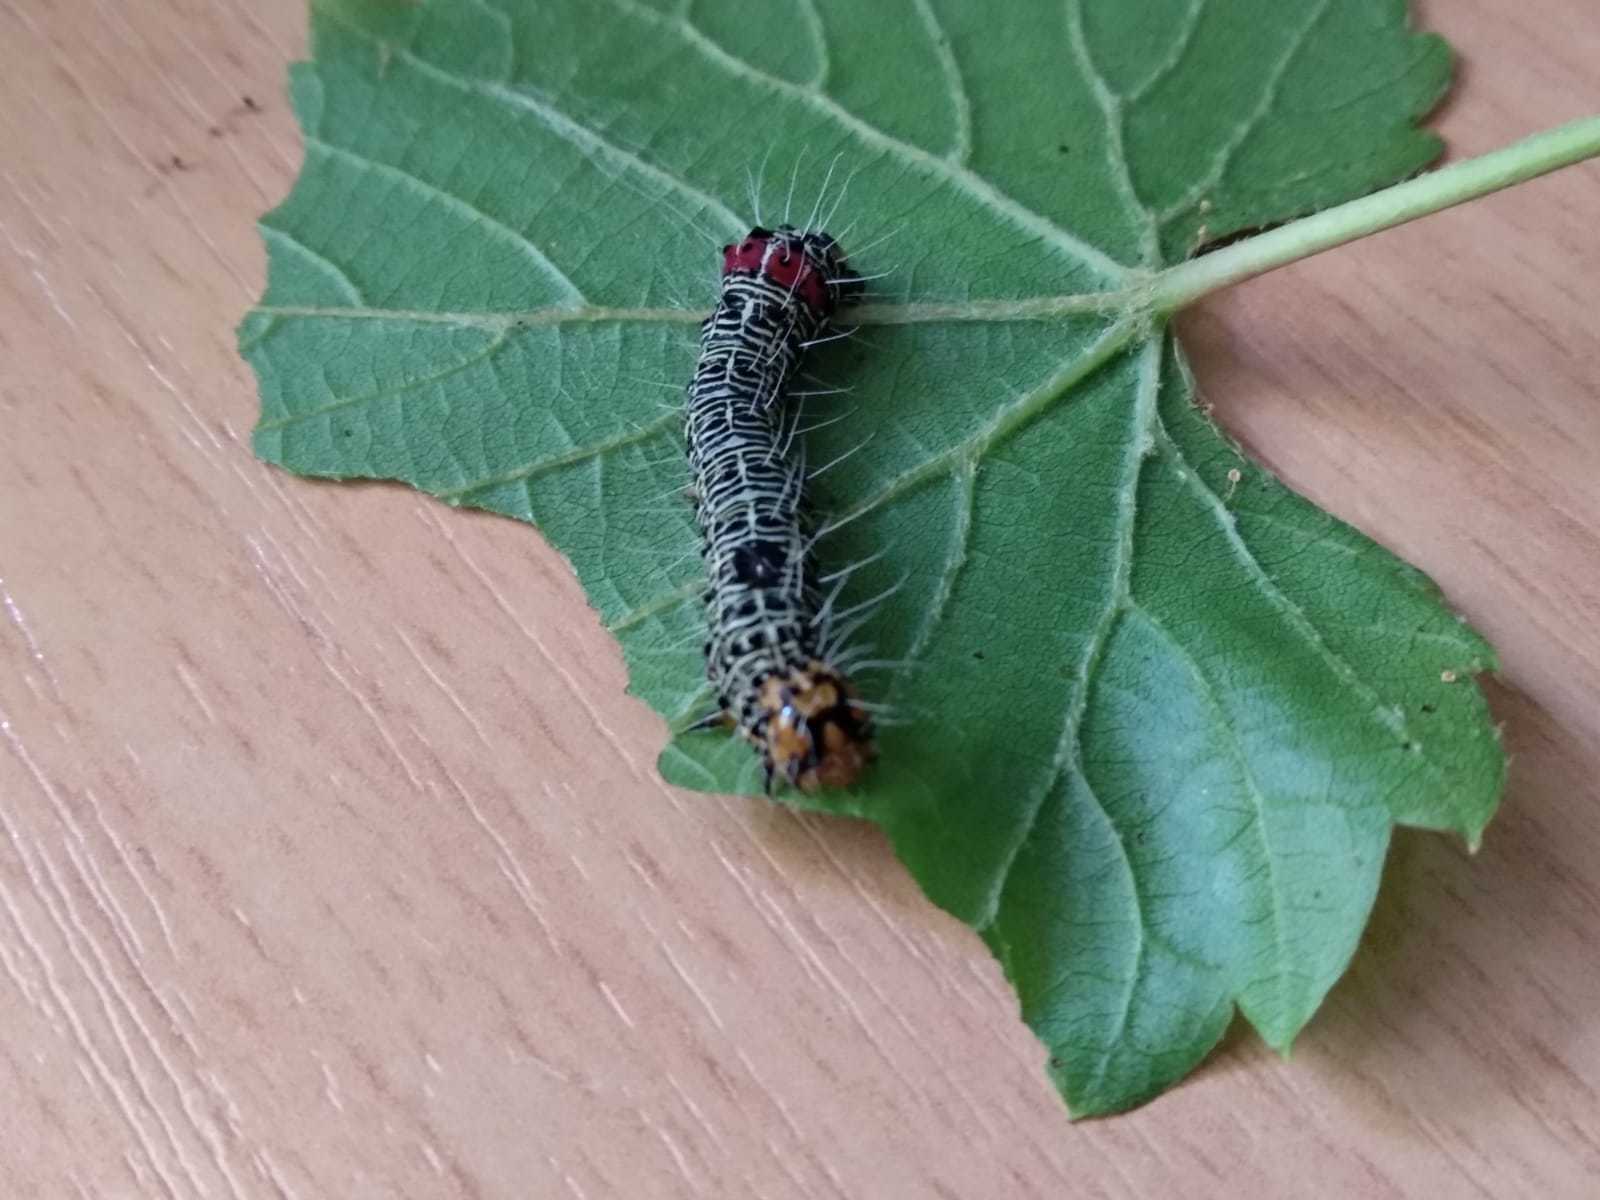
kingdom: Animalia
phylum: Arthropoda
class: Insecta
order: Lepidoptera
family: Noctuidae
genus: Phalaenoides
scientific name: Phalaenoides glycinae
